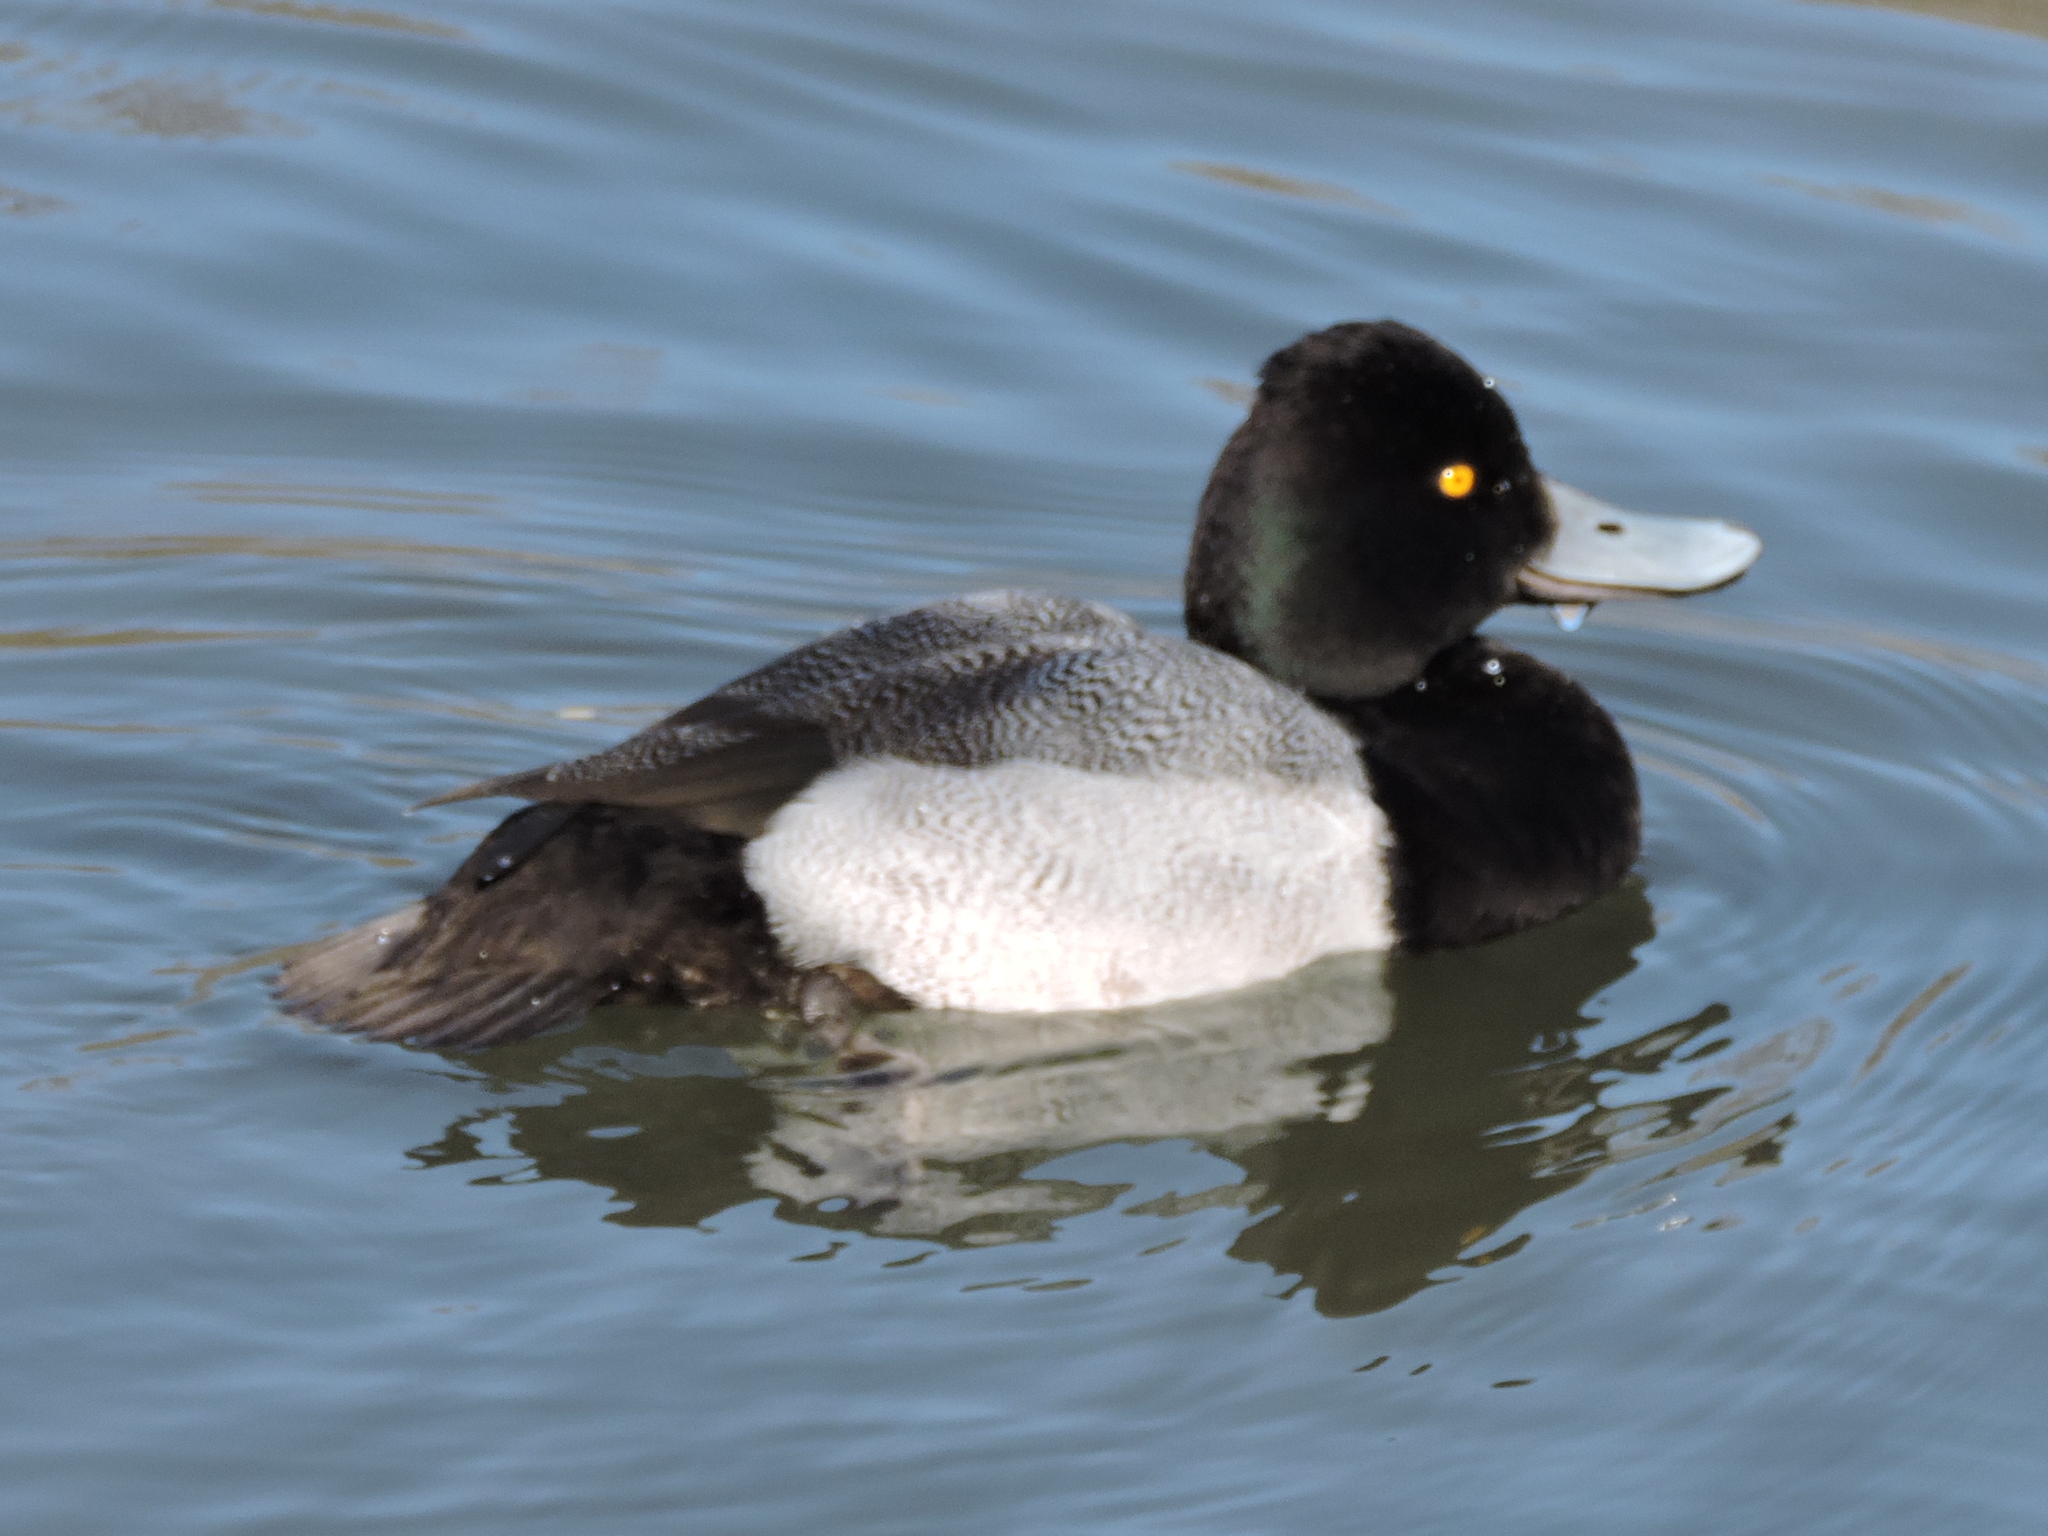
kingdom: Animalia
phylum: Chordata
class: Aves
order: Anseriformes
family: Anatidae
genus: Aythya
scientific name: Aythya affinis
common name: Lesser scaup
